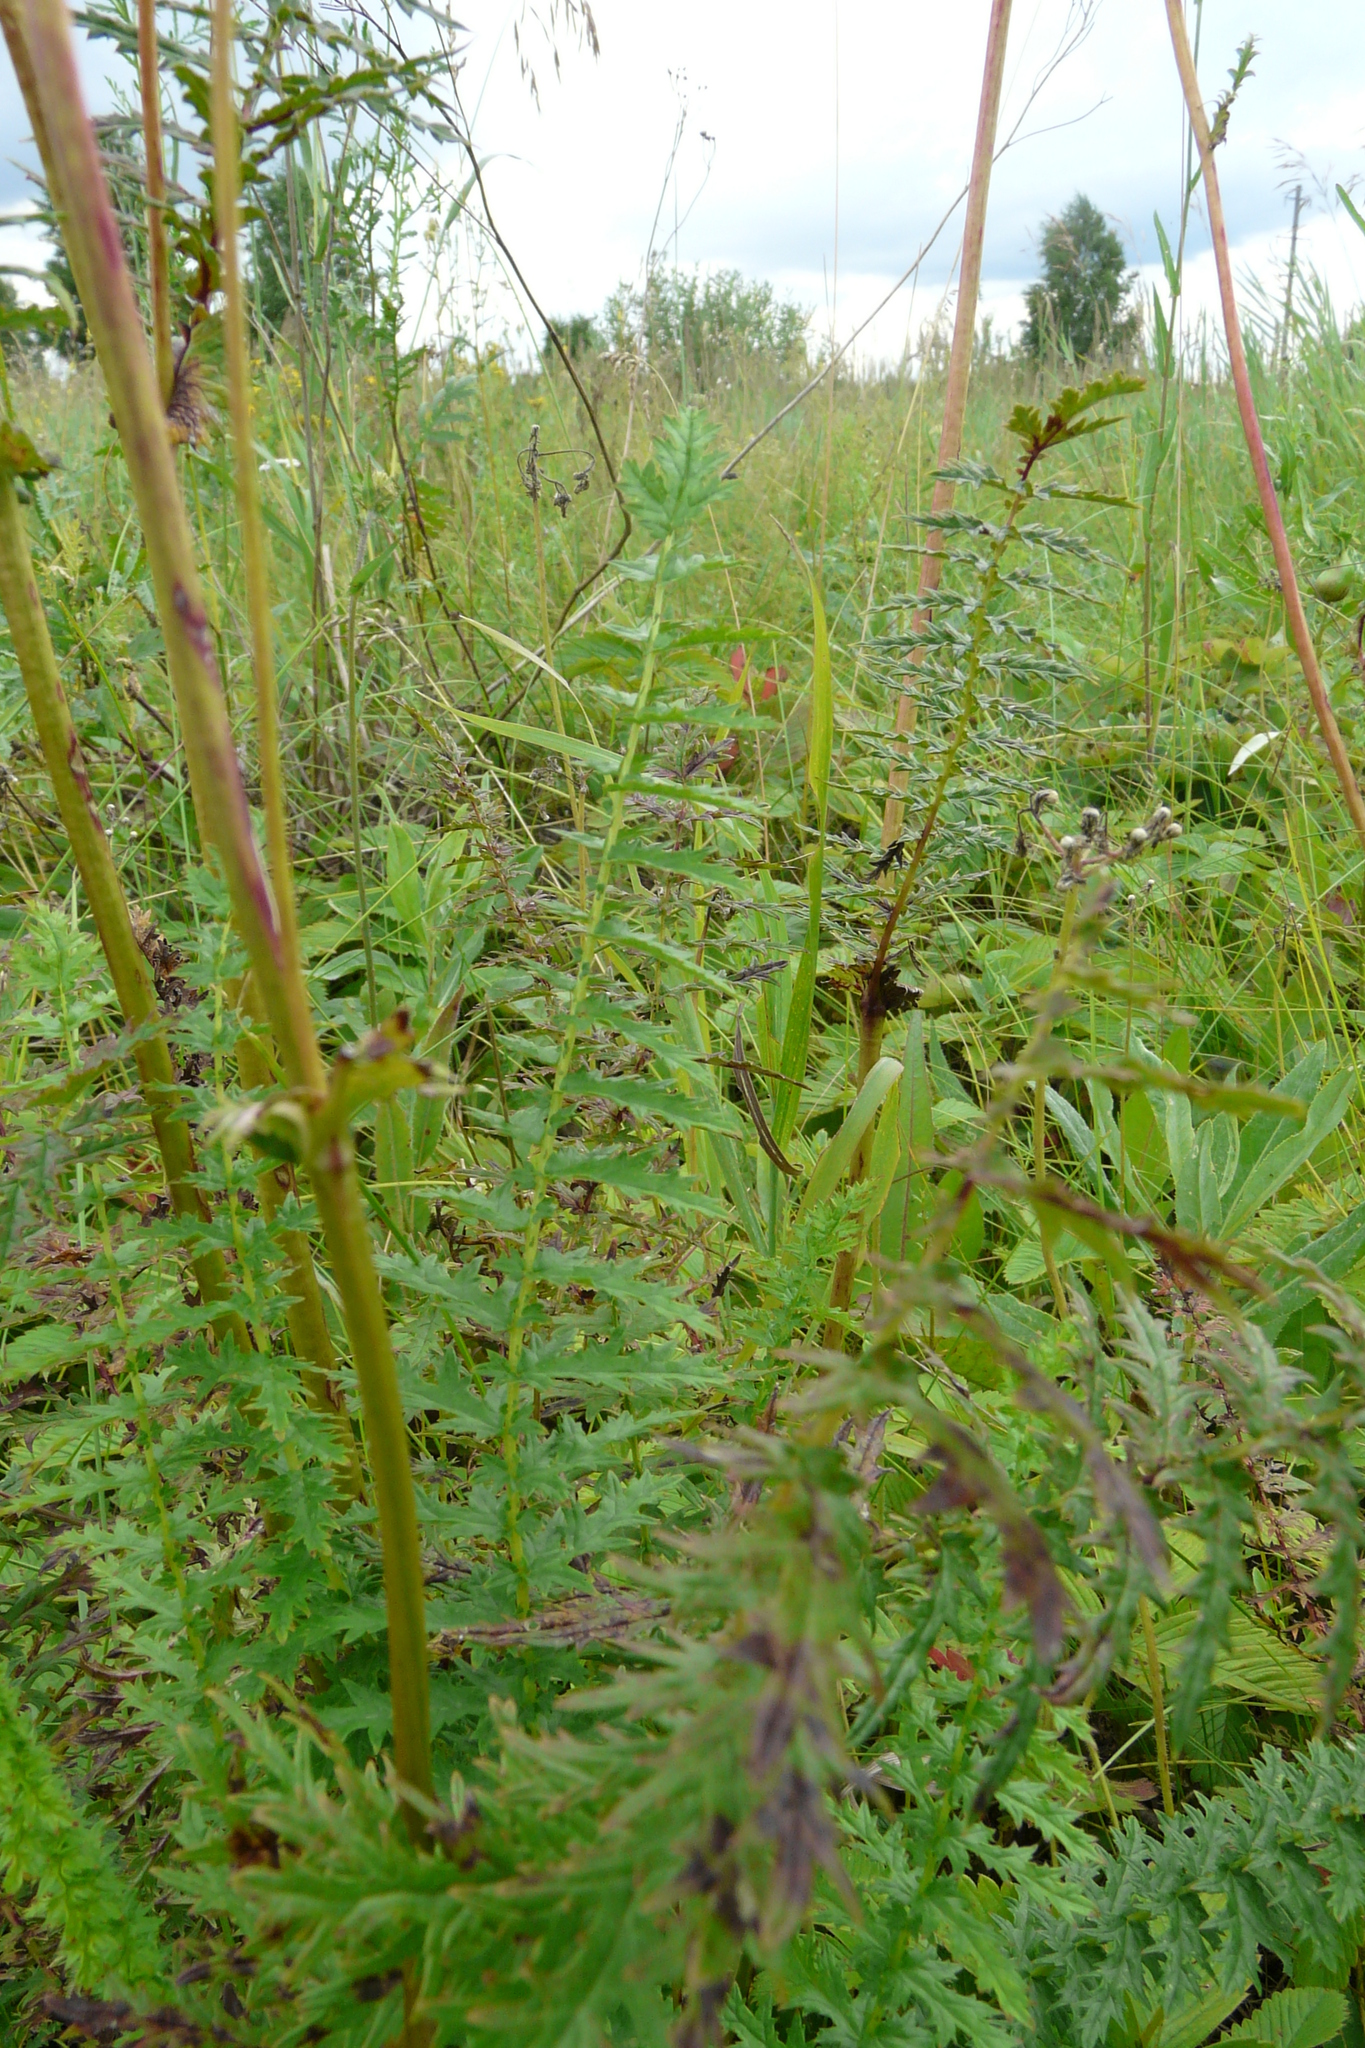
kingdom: Plantae
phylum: Tracheophyta
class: Magnoliopsida
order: Rosales
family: Rosaceae
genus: Filipendula
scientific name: Filipendula vulgaris
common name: Dropwort
